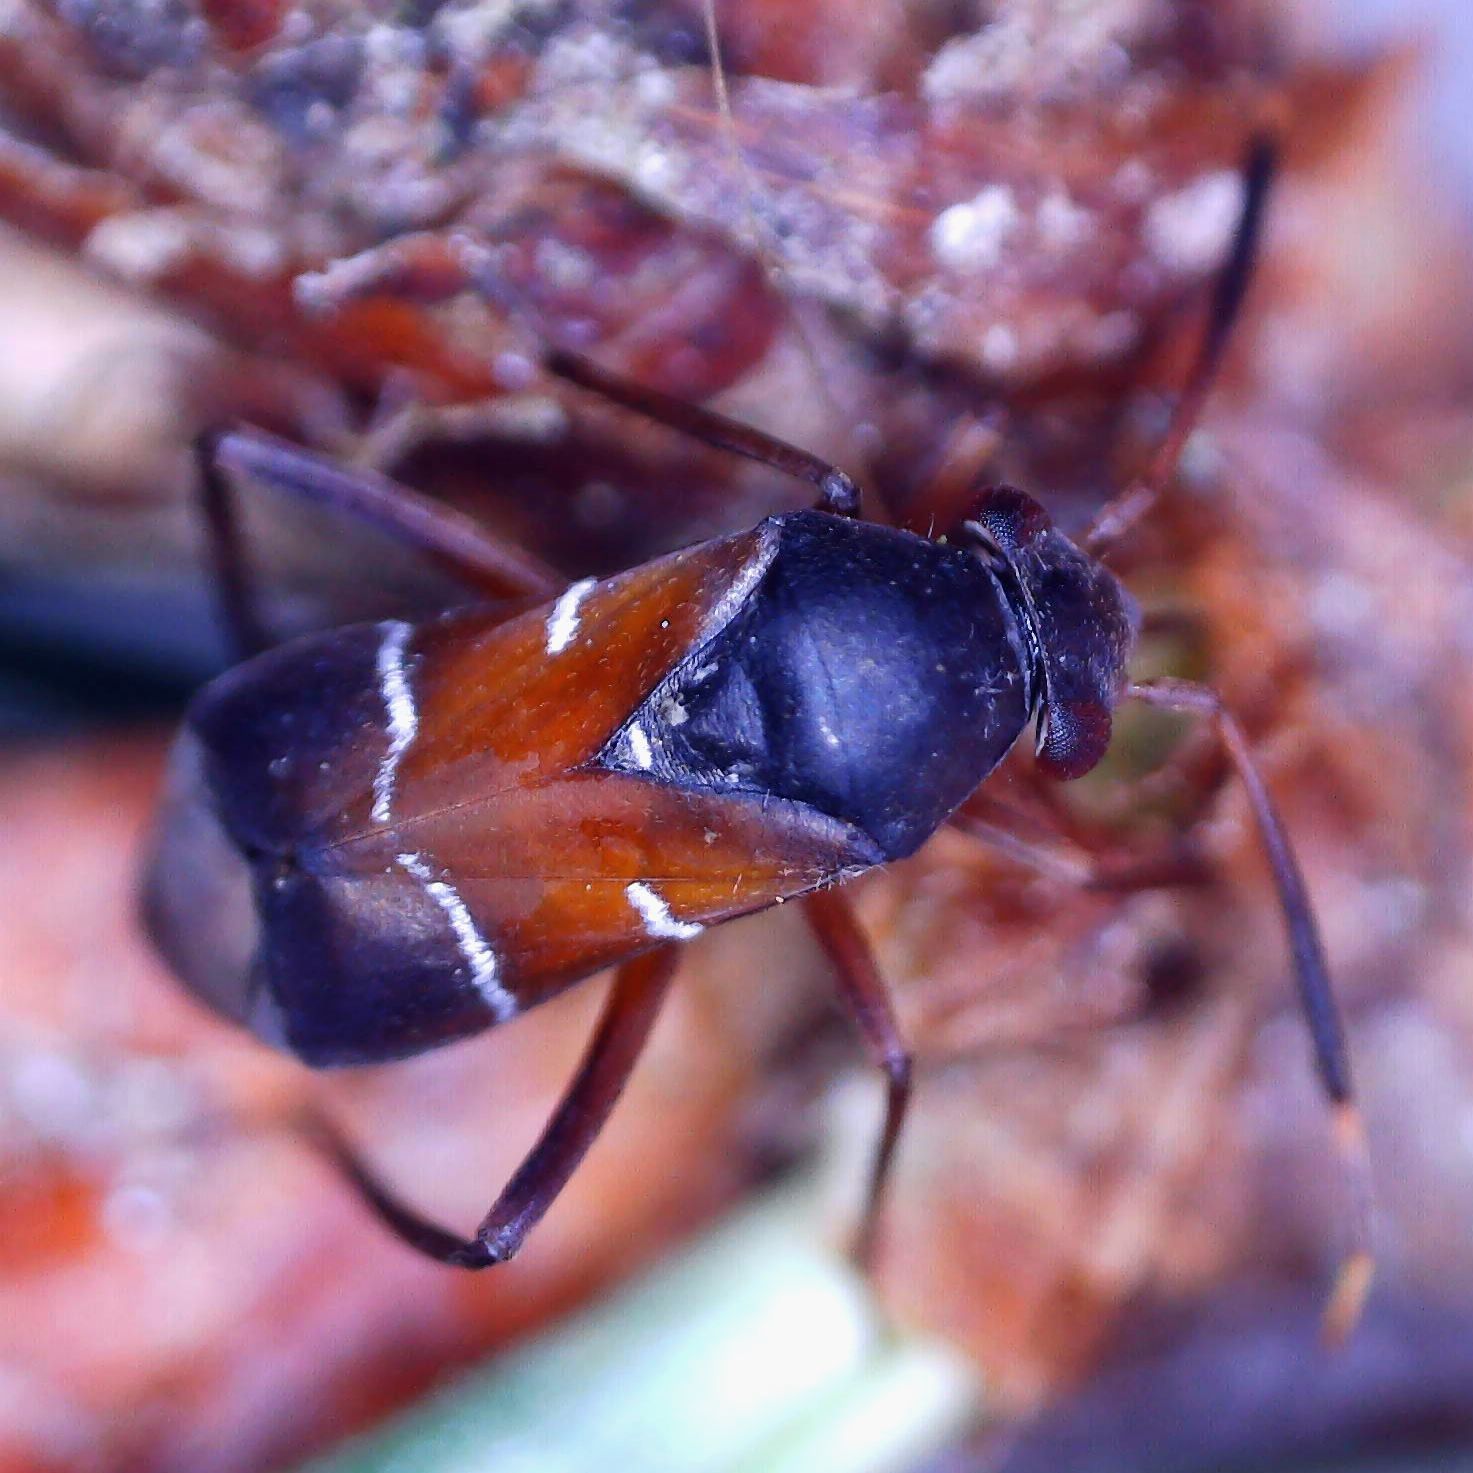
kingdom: Animalia
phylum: Arthropoda
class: Insecta
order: Hemiptera
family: Miridae
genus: Pilophorus
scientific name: Pilophorus cinnamopterus
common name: Plant bug
